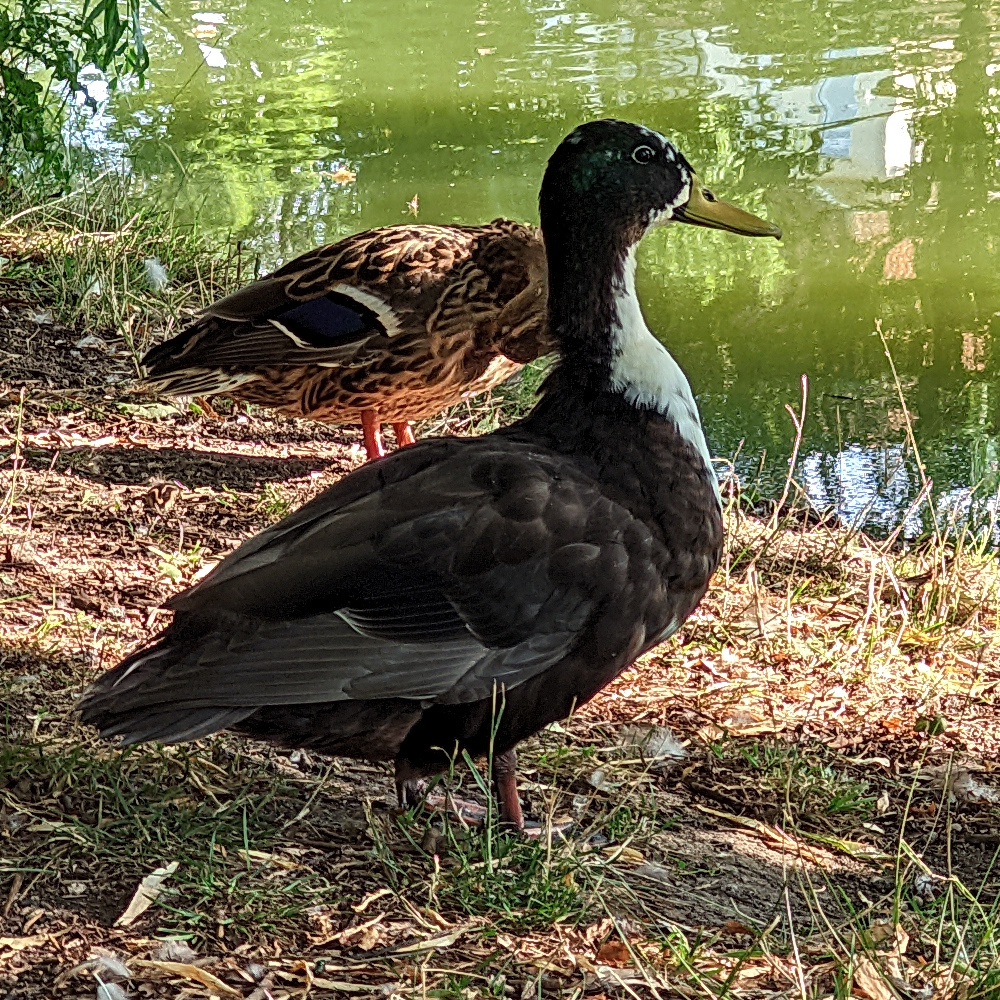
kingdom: Animalia
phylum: Chordata
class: Aves
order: Anseriformes
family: Anatidae
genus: Anas
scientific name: Anas platyrhynchos
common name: Mallard
